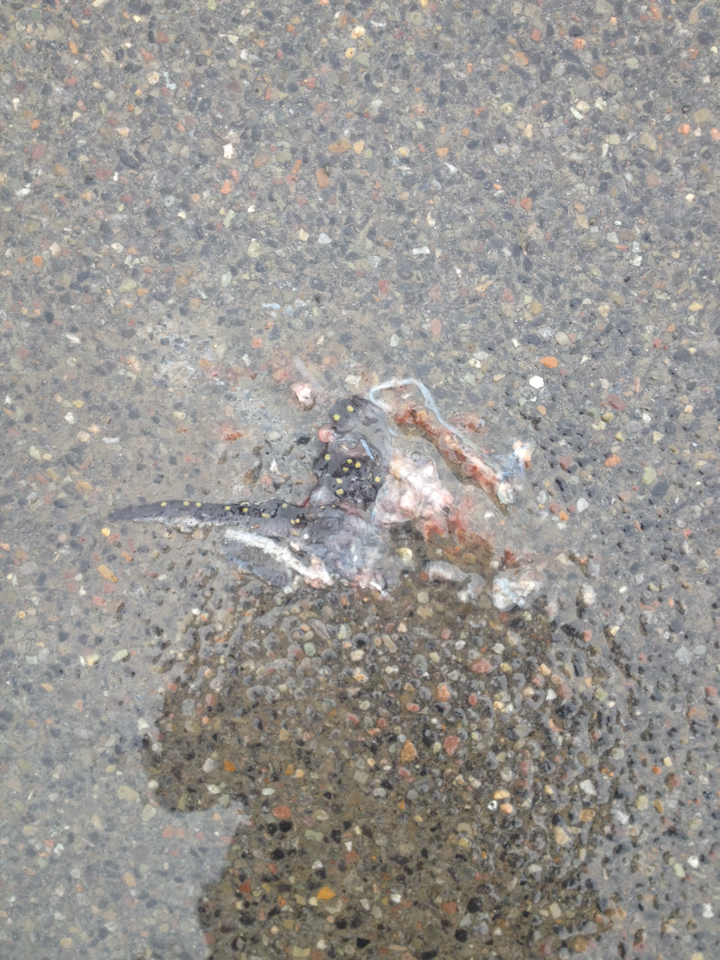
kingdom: Animalia
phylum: Chordata
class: Amphibia
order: Caudata
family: Ambystomatidae
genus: Ambystoma
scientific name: Ambystoma maculatum
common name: Spotted salamander
